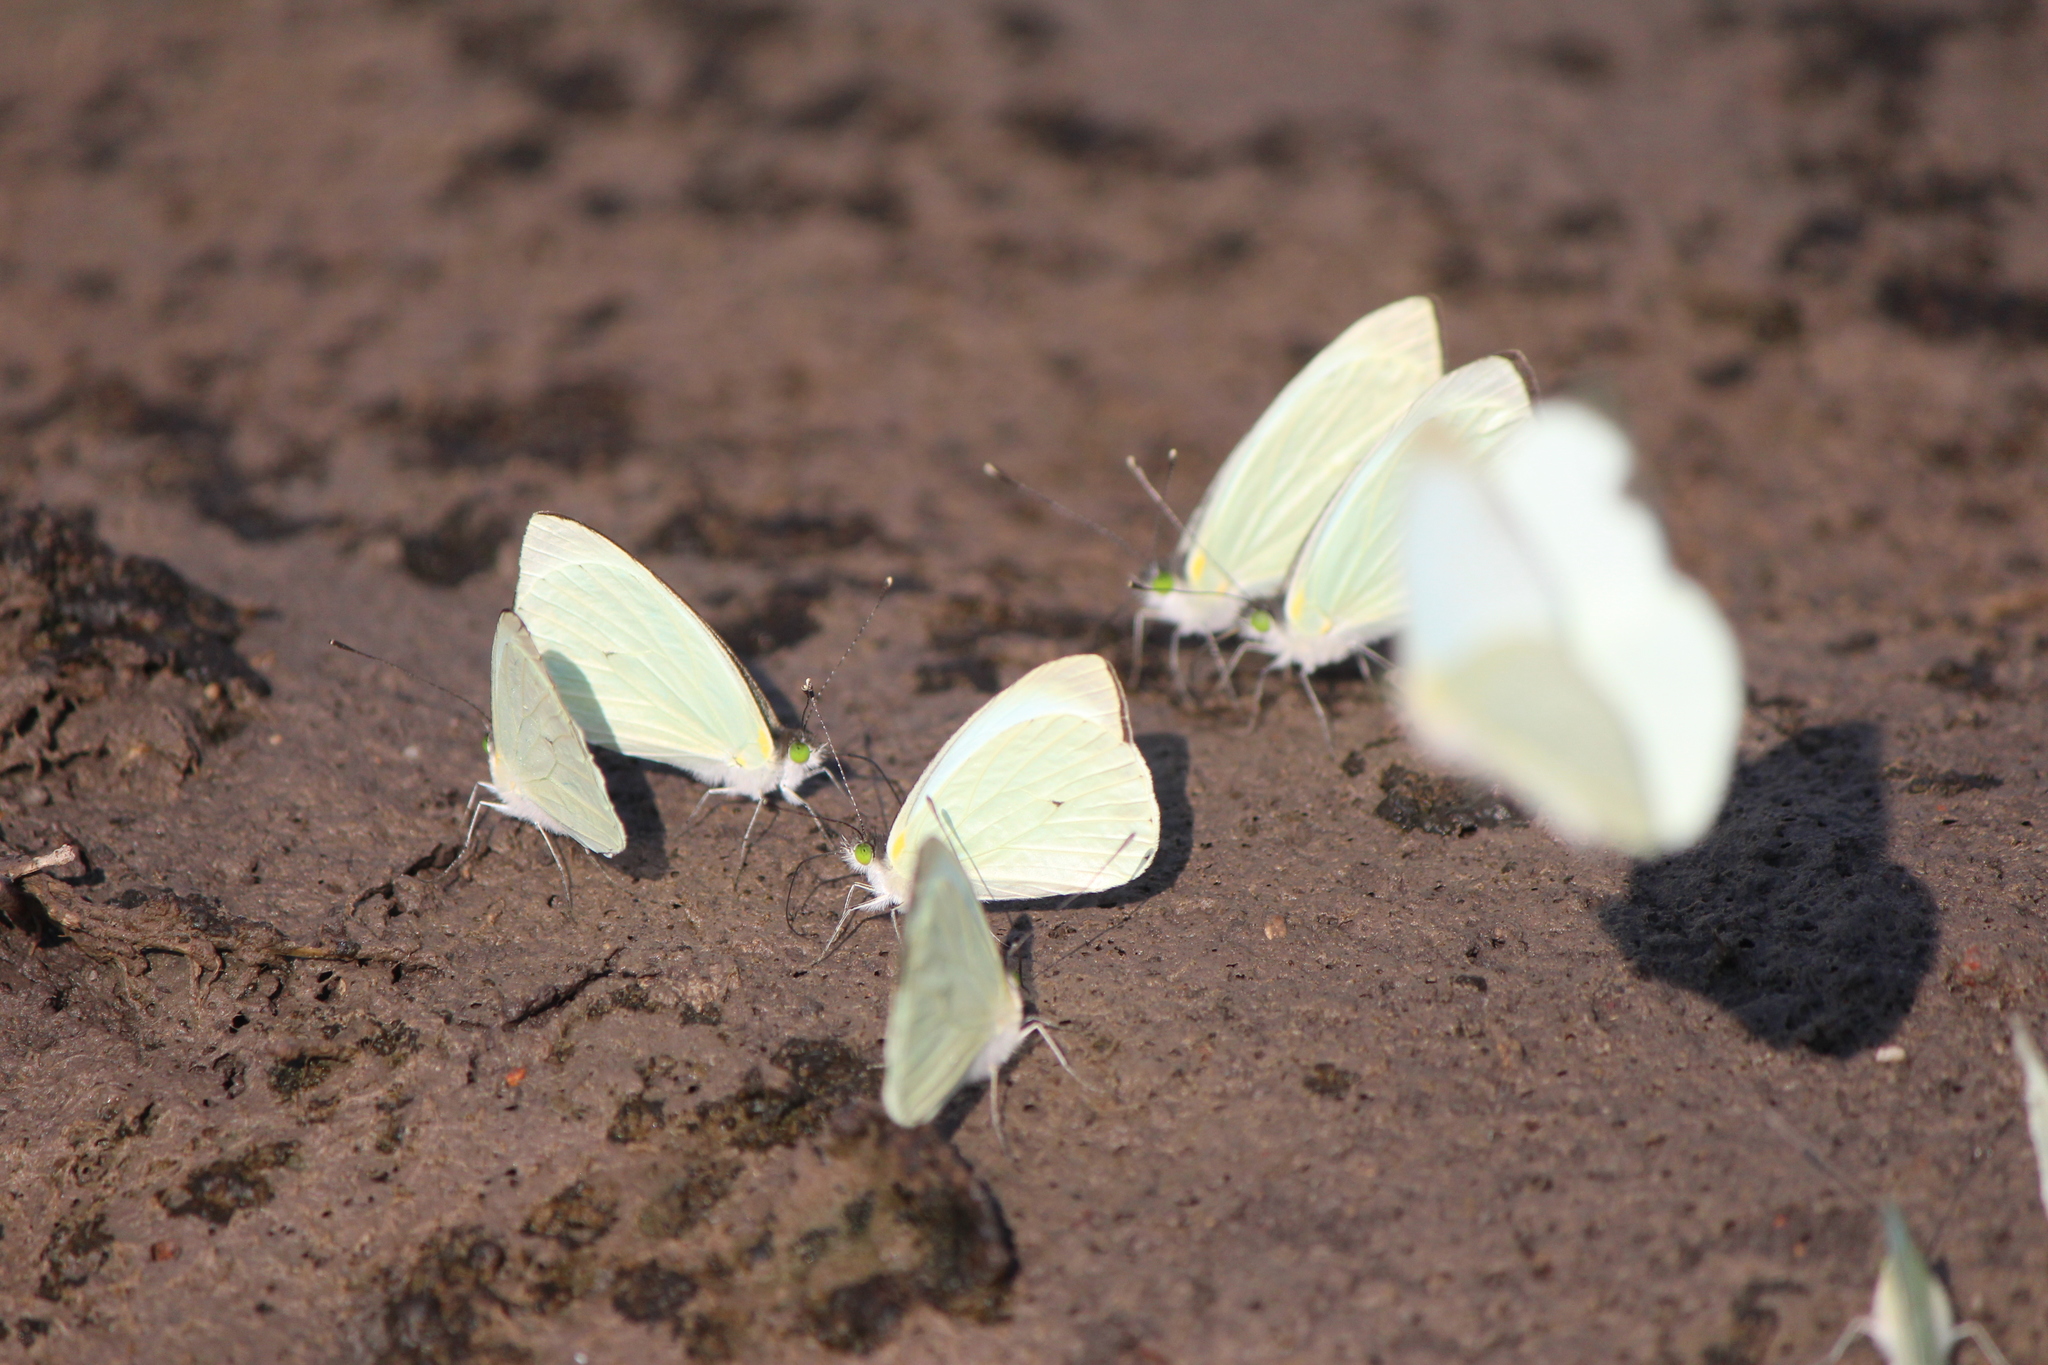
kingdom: Animalia
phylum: Arthropoda
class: Insecta
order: Lepidoptera
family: Pieridae
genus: Leptophobia
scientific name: Leptophobia aripa
